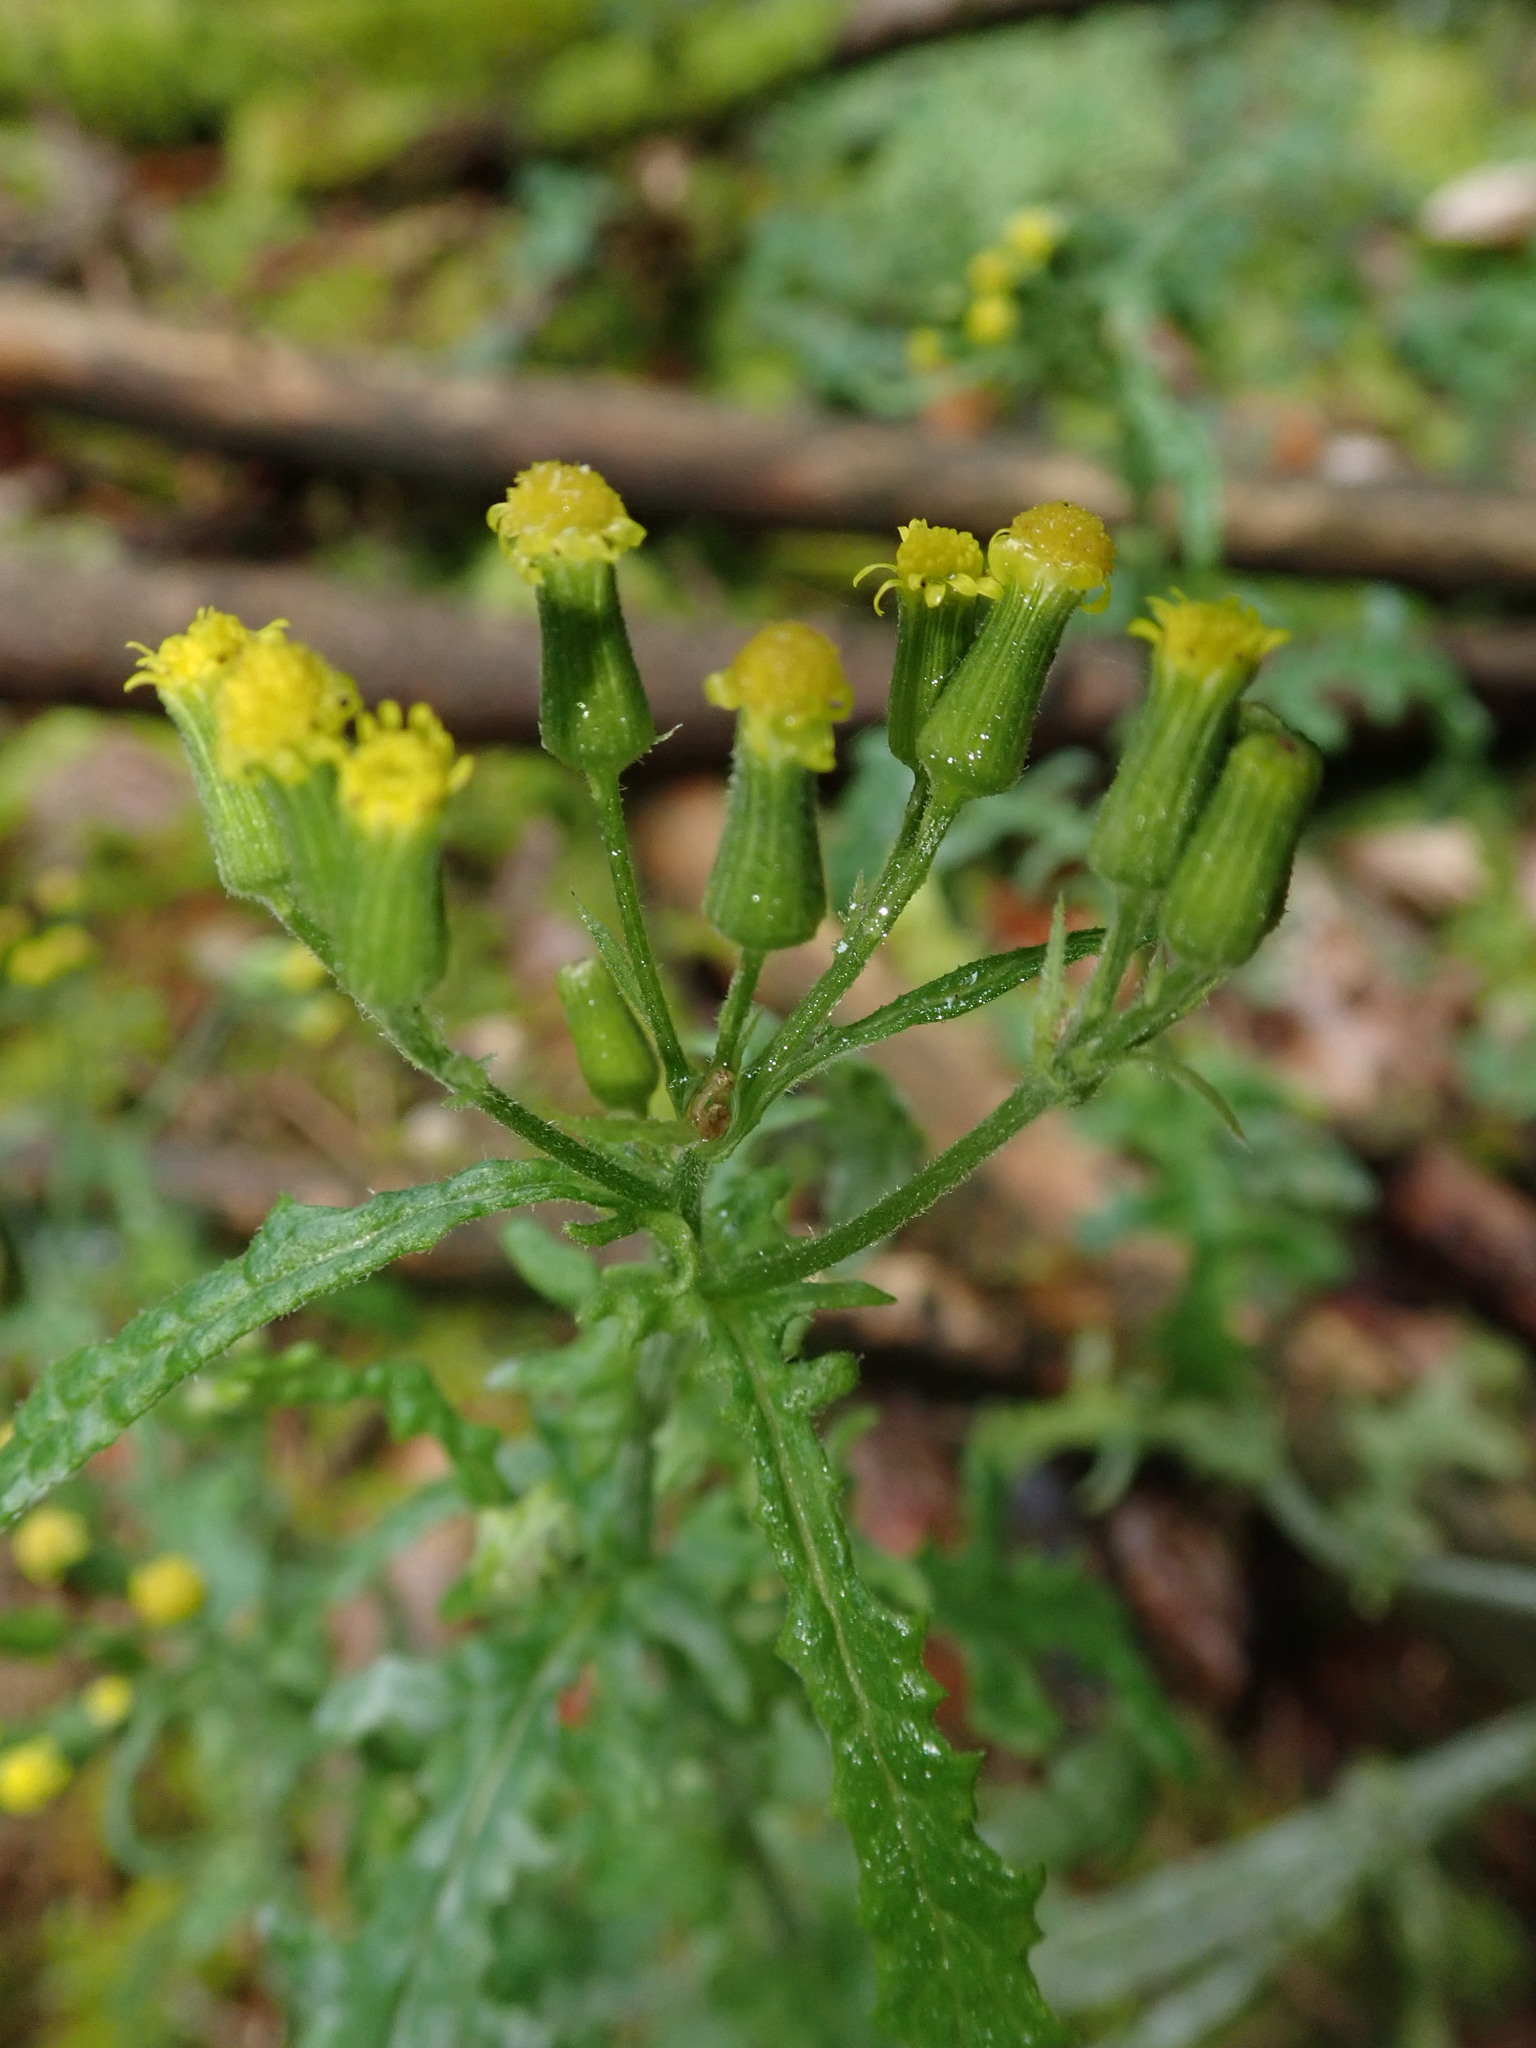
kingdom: Plantae
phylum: Tracheophyta
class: Magnoliopsida
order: Asterales
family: Asteraceae
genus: Senecio
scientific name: Senecio sylvaticus
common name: Woodland ragwort
